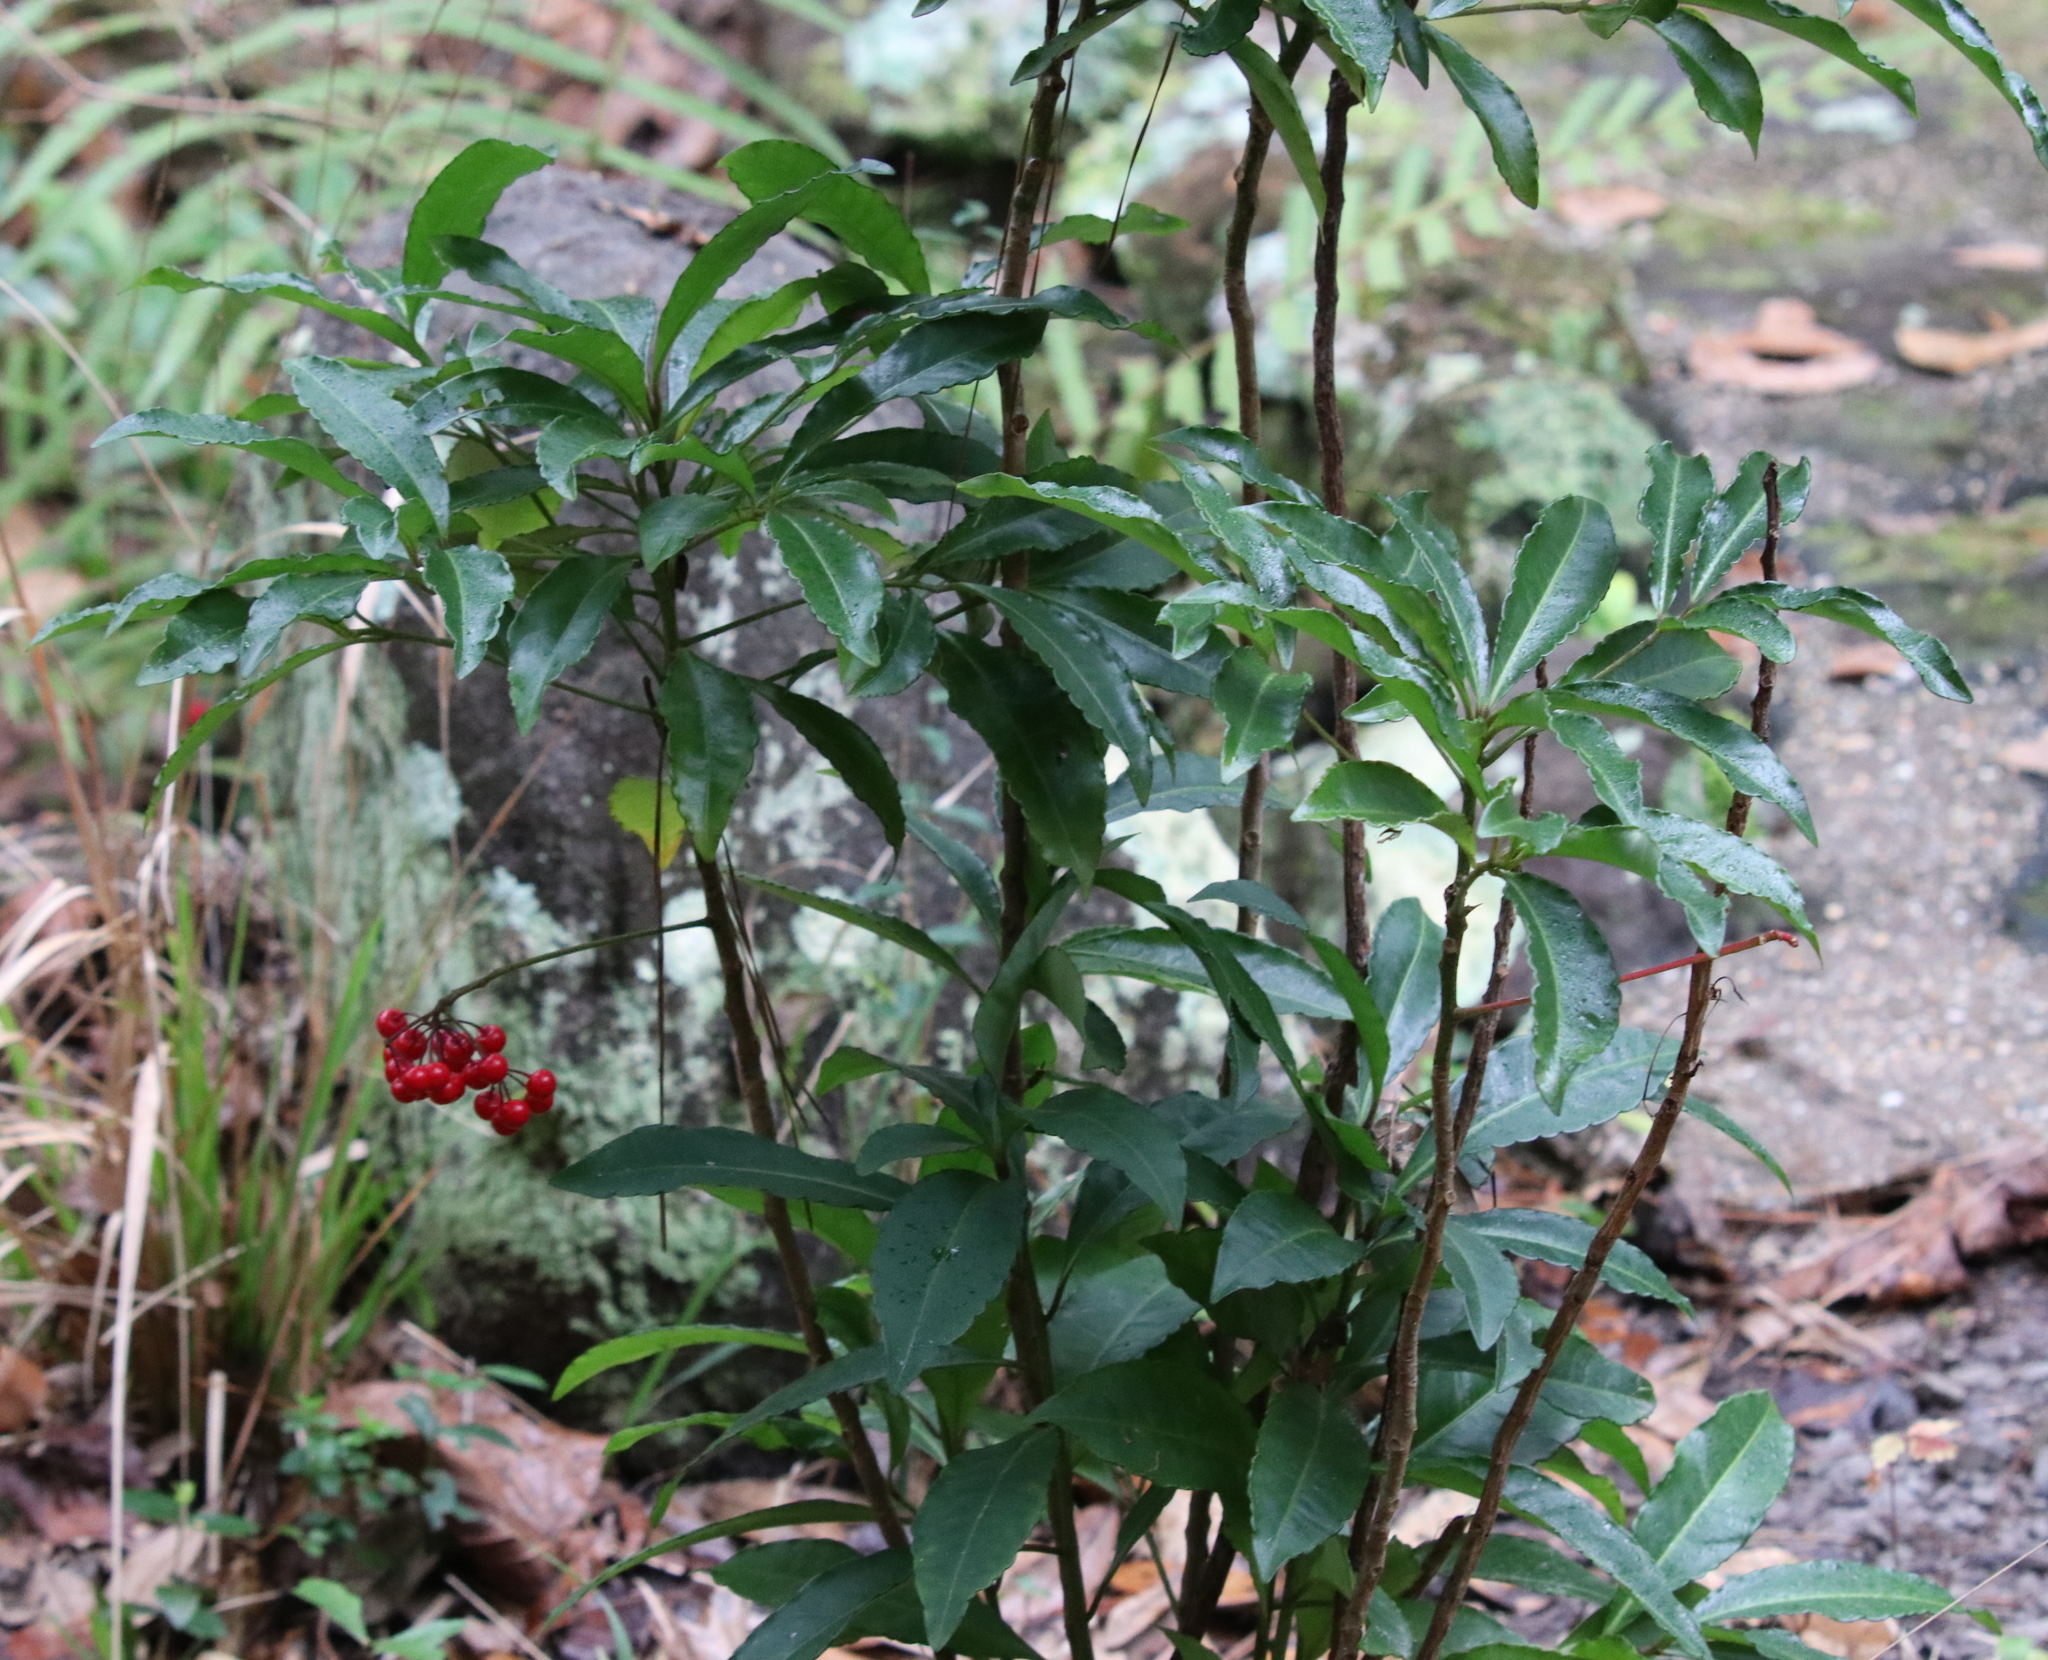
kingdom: Plantae
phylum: Tracheophyta
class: Magnoliopsida
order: Ericales
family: Primulaceae
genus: Ardisia
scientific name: Ardisia crenata
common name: Hen's eyes
